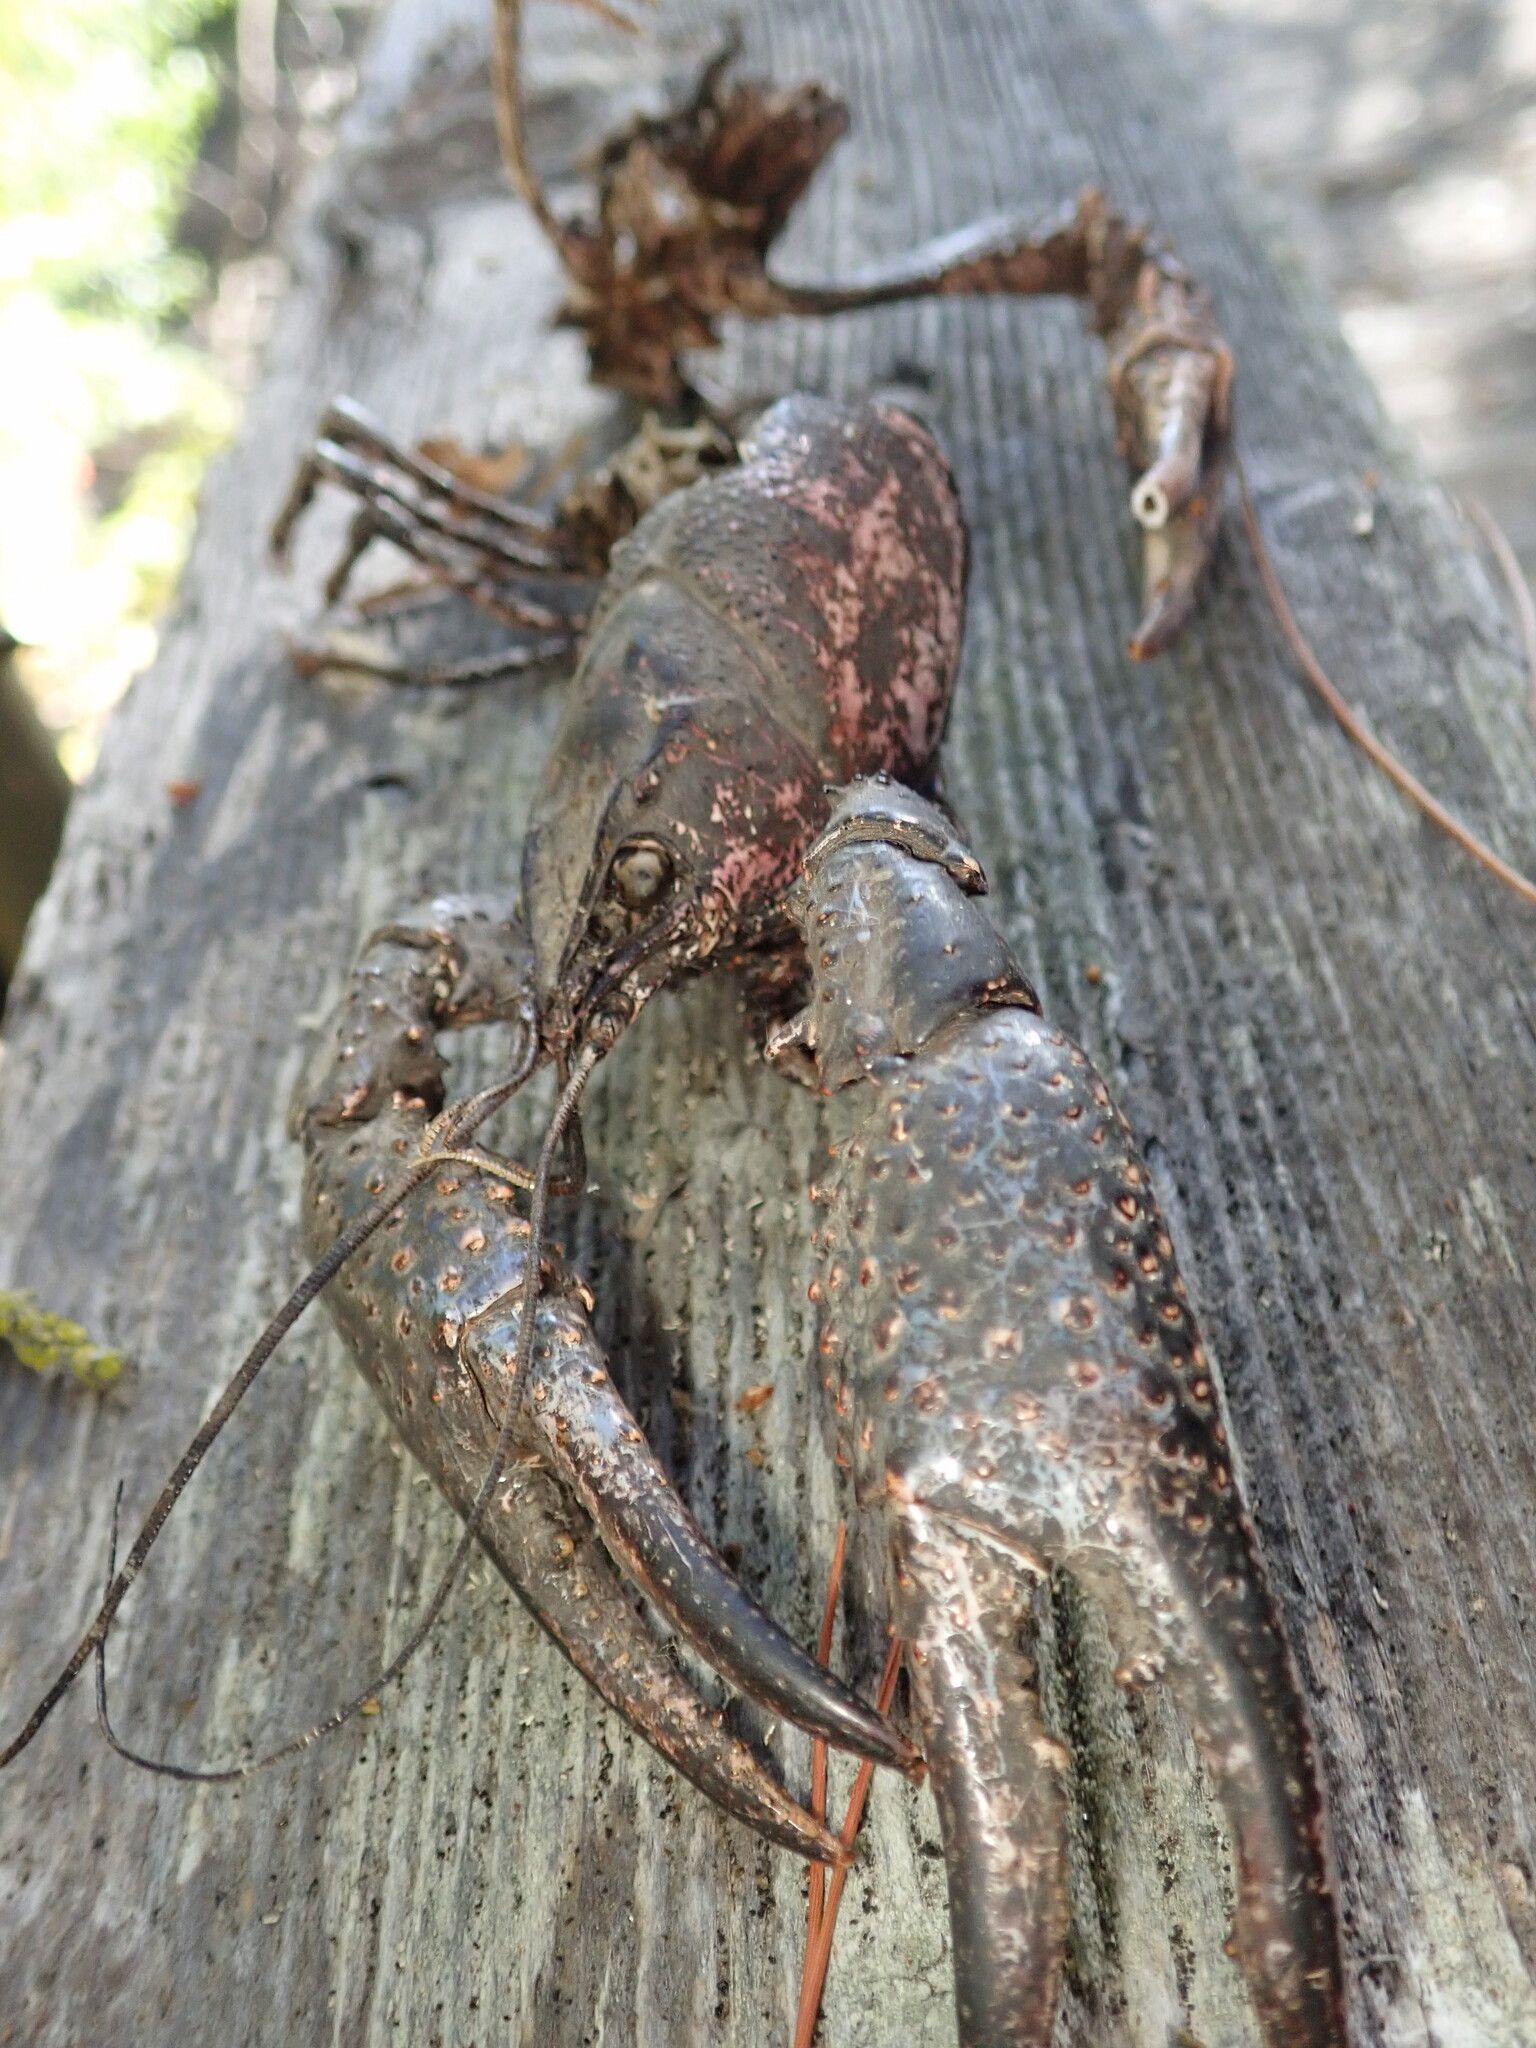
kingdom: Animalia
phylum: Arthropoda
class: Malacostraca
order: Decapoda
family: Cambaridae
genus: Procambarus
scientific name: Procambarus clarkii
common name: Red swamp crayfish
